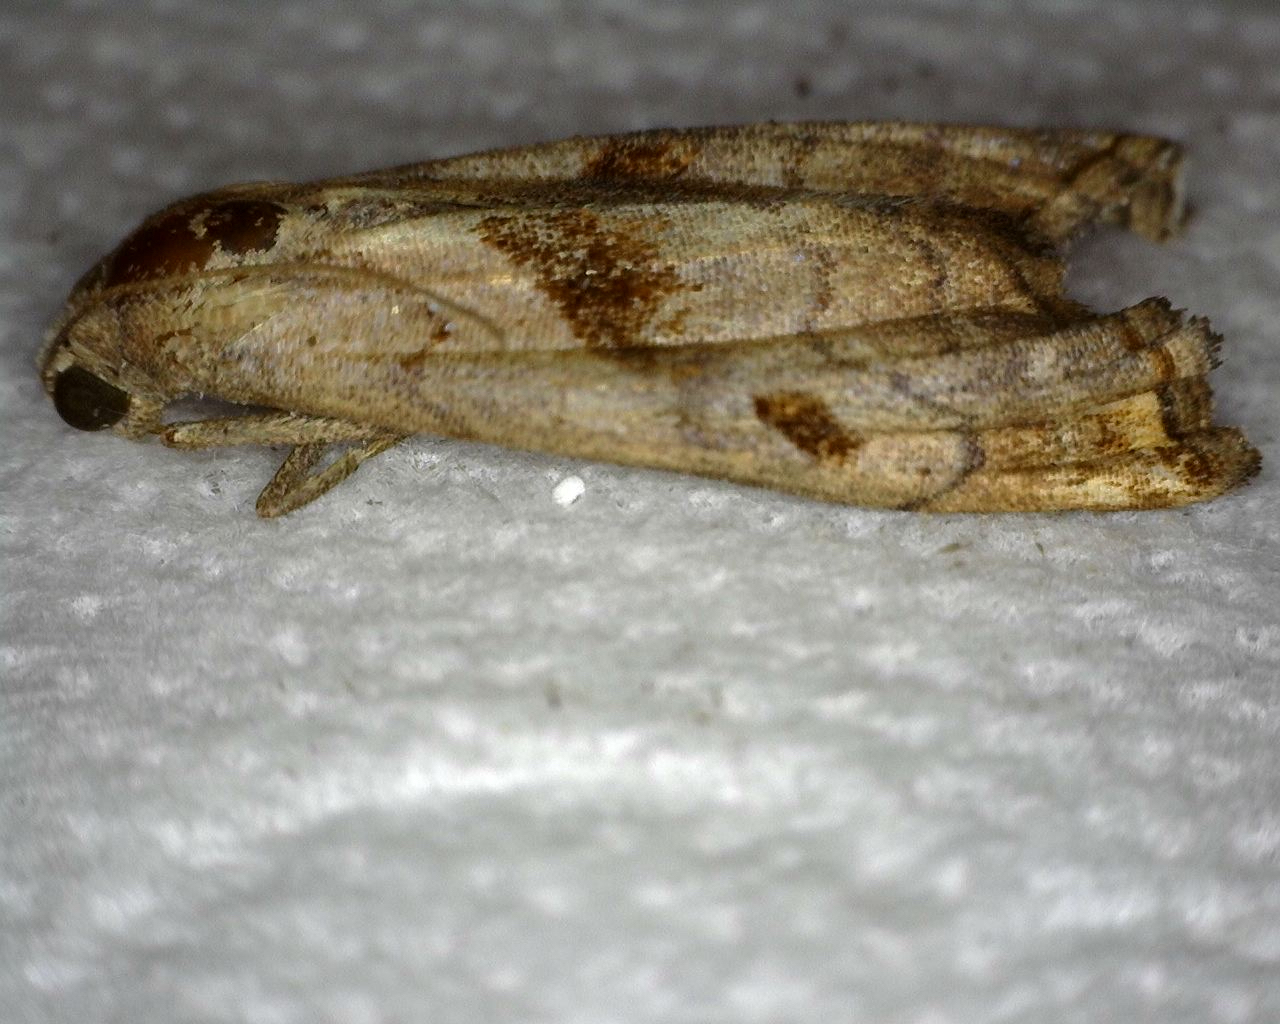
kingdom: Animalia
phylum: Arthropoda
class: Insecta
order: Lepidoptera
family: Erebidae
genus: Palthis
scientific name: Palthis angulalis
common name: Dark-spotted palthis moth
